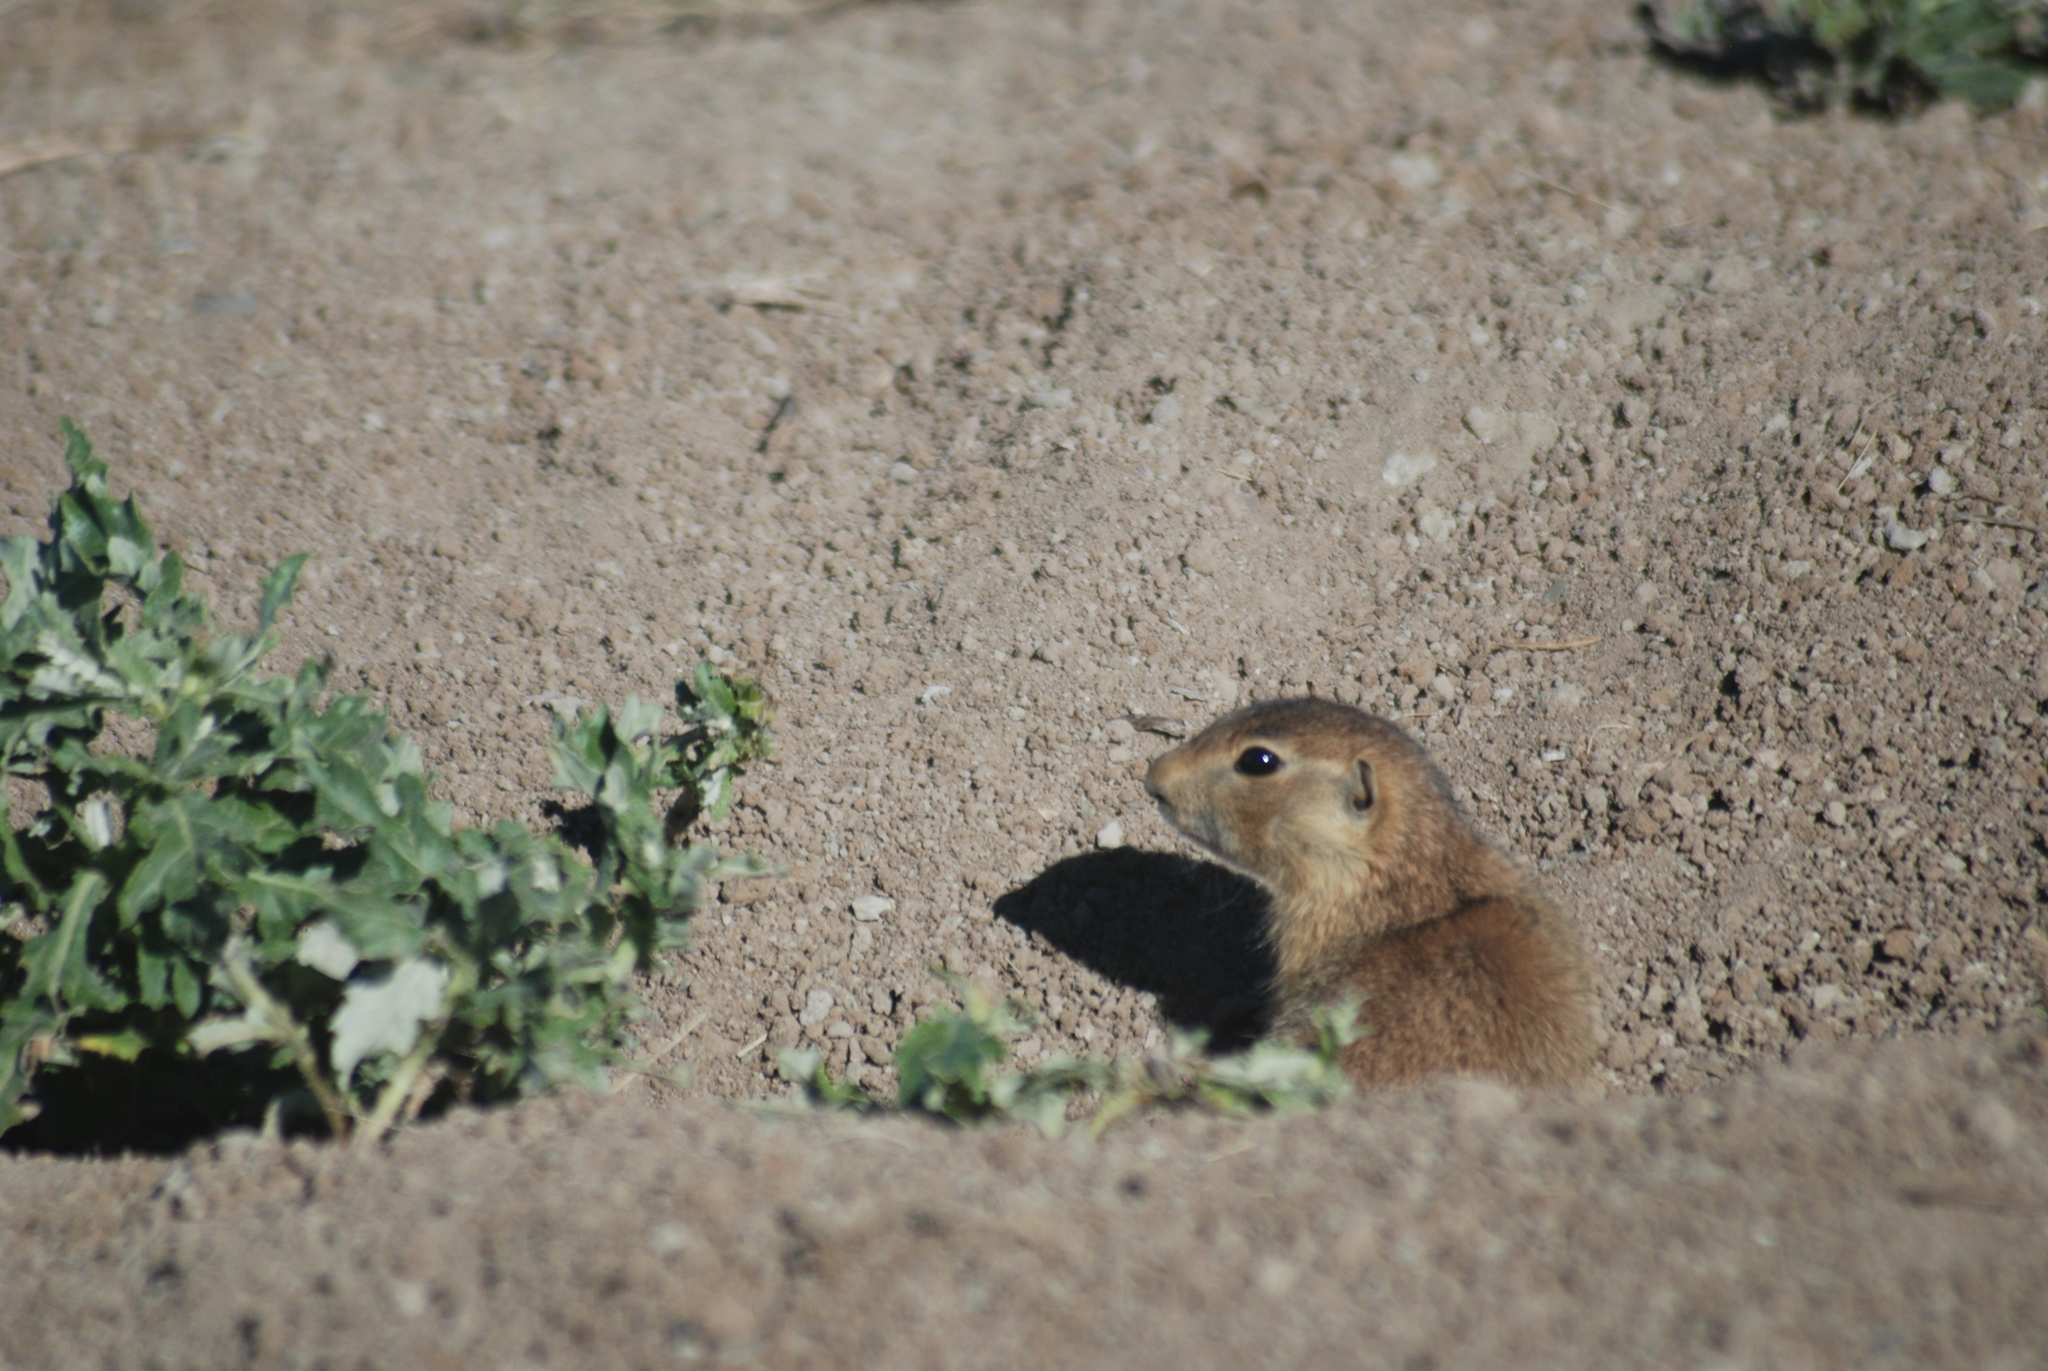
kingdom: Animalia
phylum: Chordata
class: Mammalia
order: Rodentia
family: Sciuridae
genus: Cynomys
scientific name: Cynomys gunnisoni
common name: Gunnison's prairie dog
